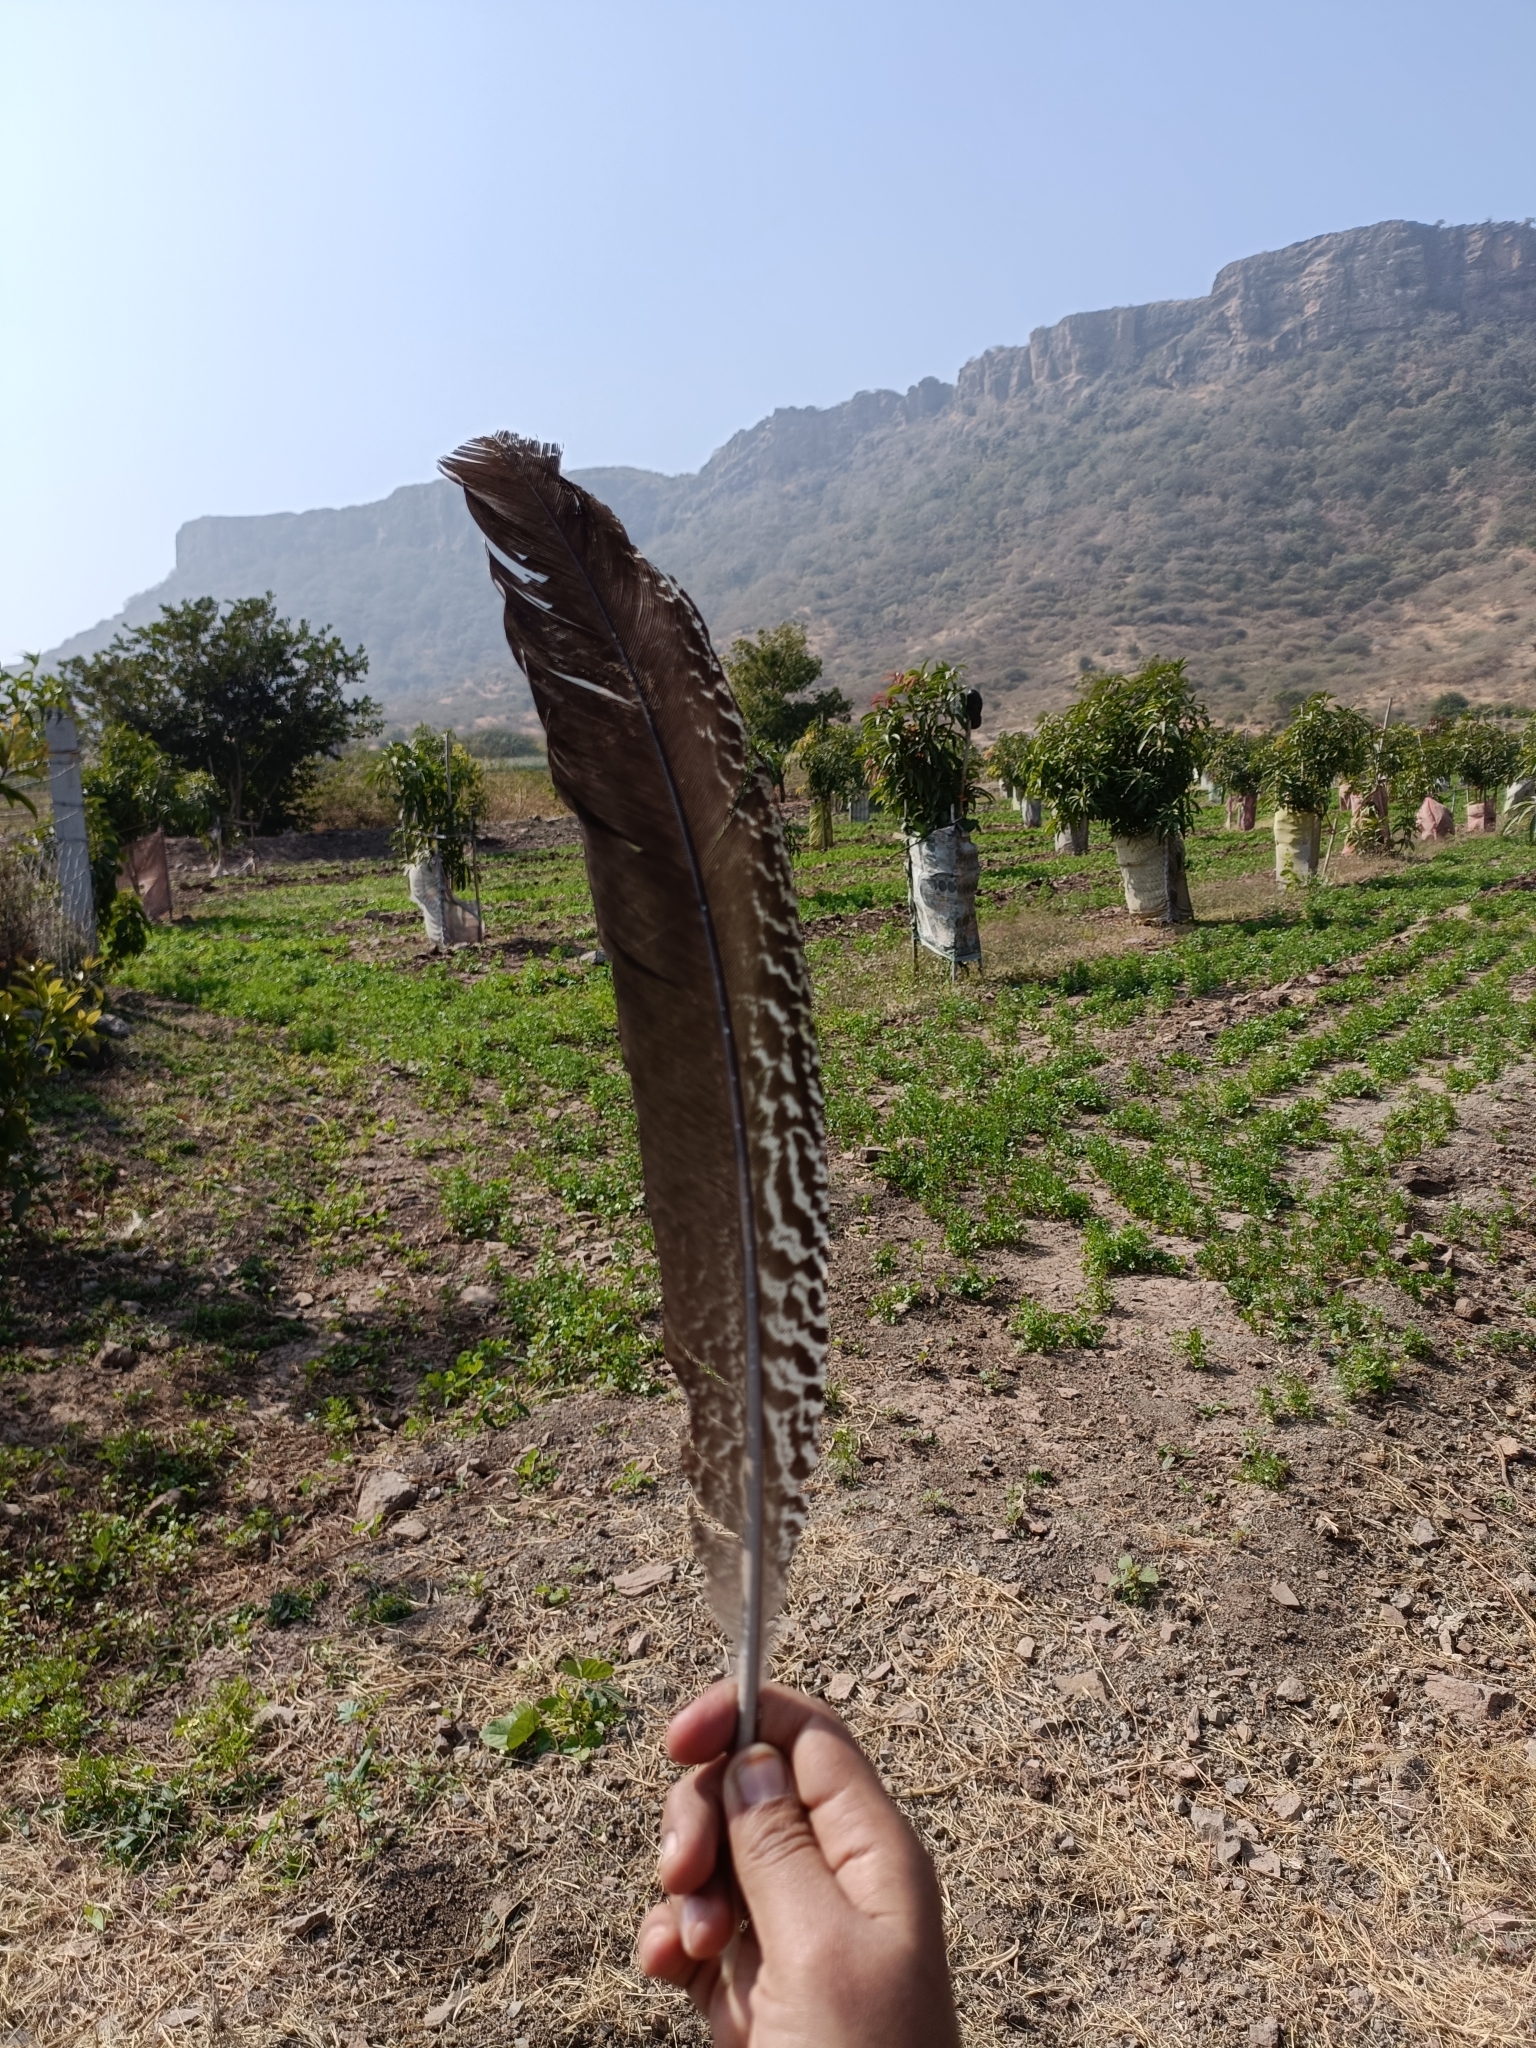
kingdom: Animalia
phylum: Chordata
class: Aves
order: Galliformes
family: Phasianidae
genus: Pavo
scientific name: Pavo cristatus
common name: Indian peafowl
